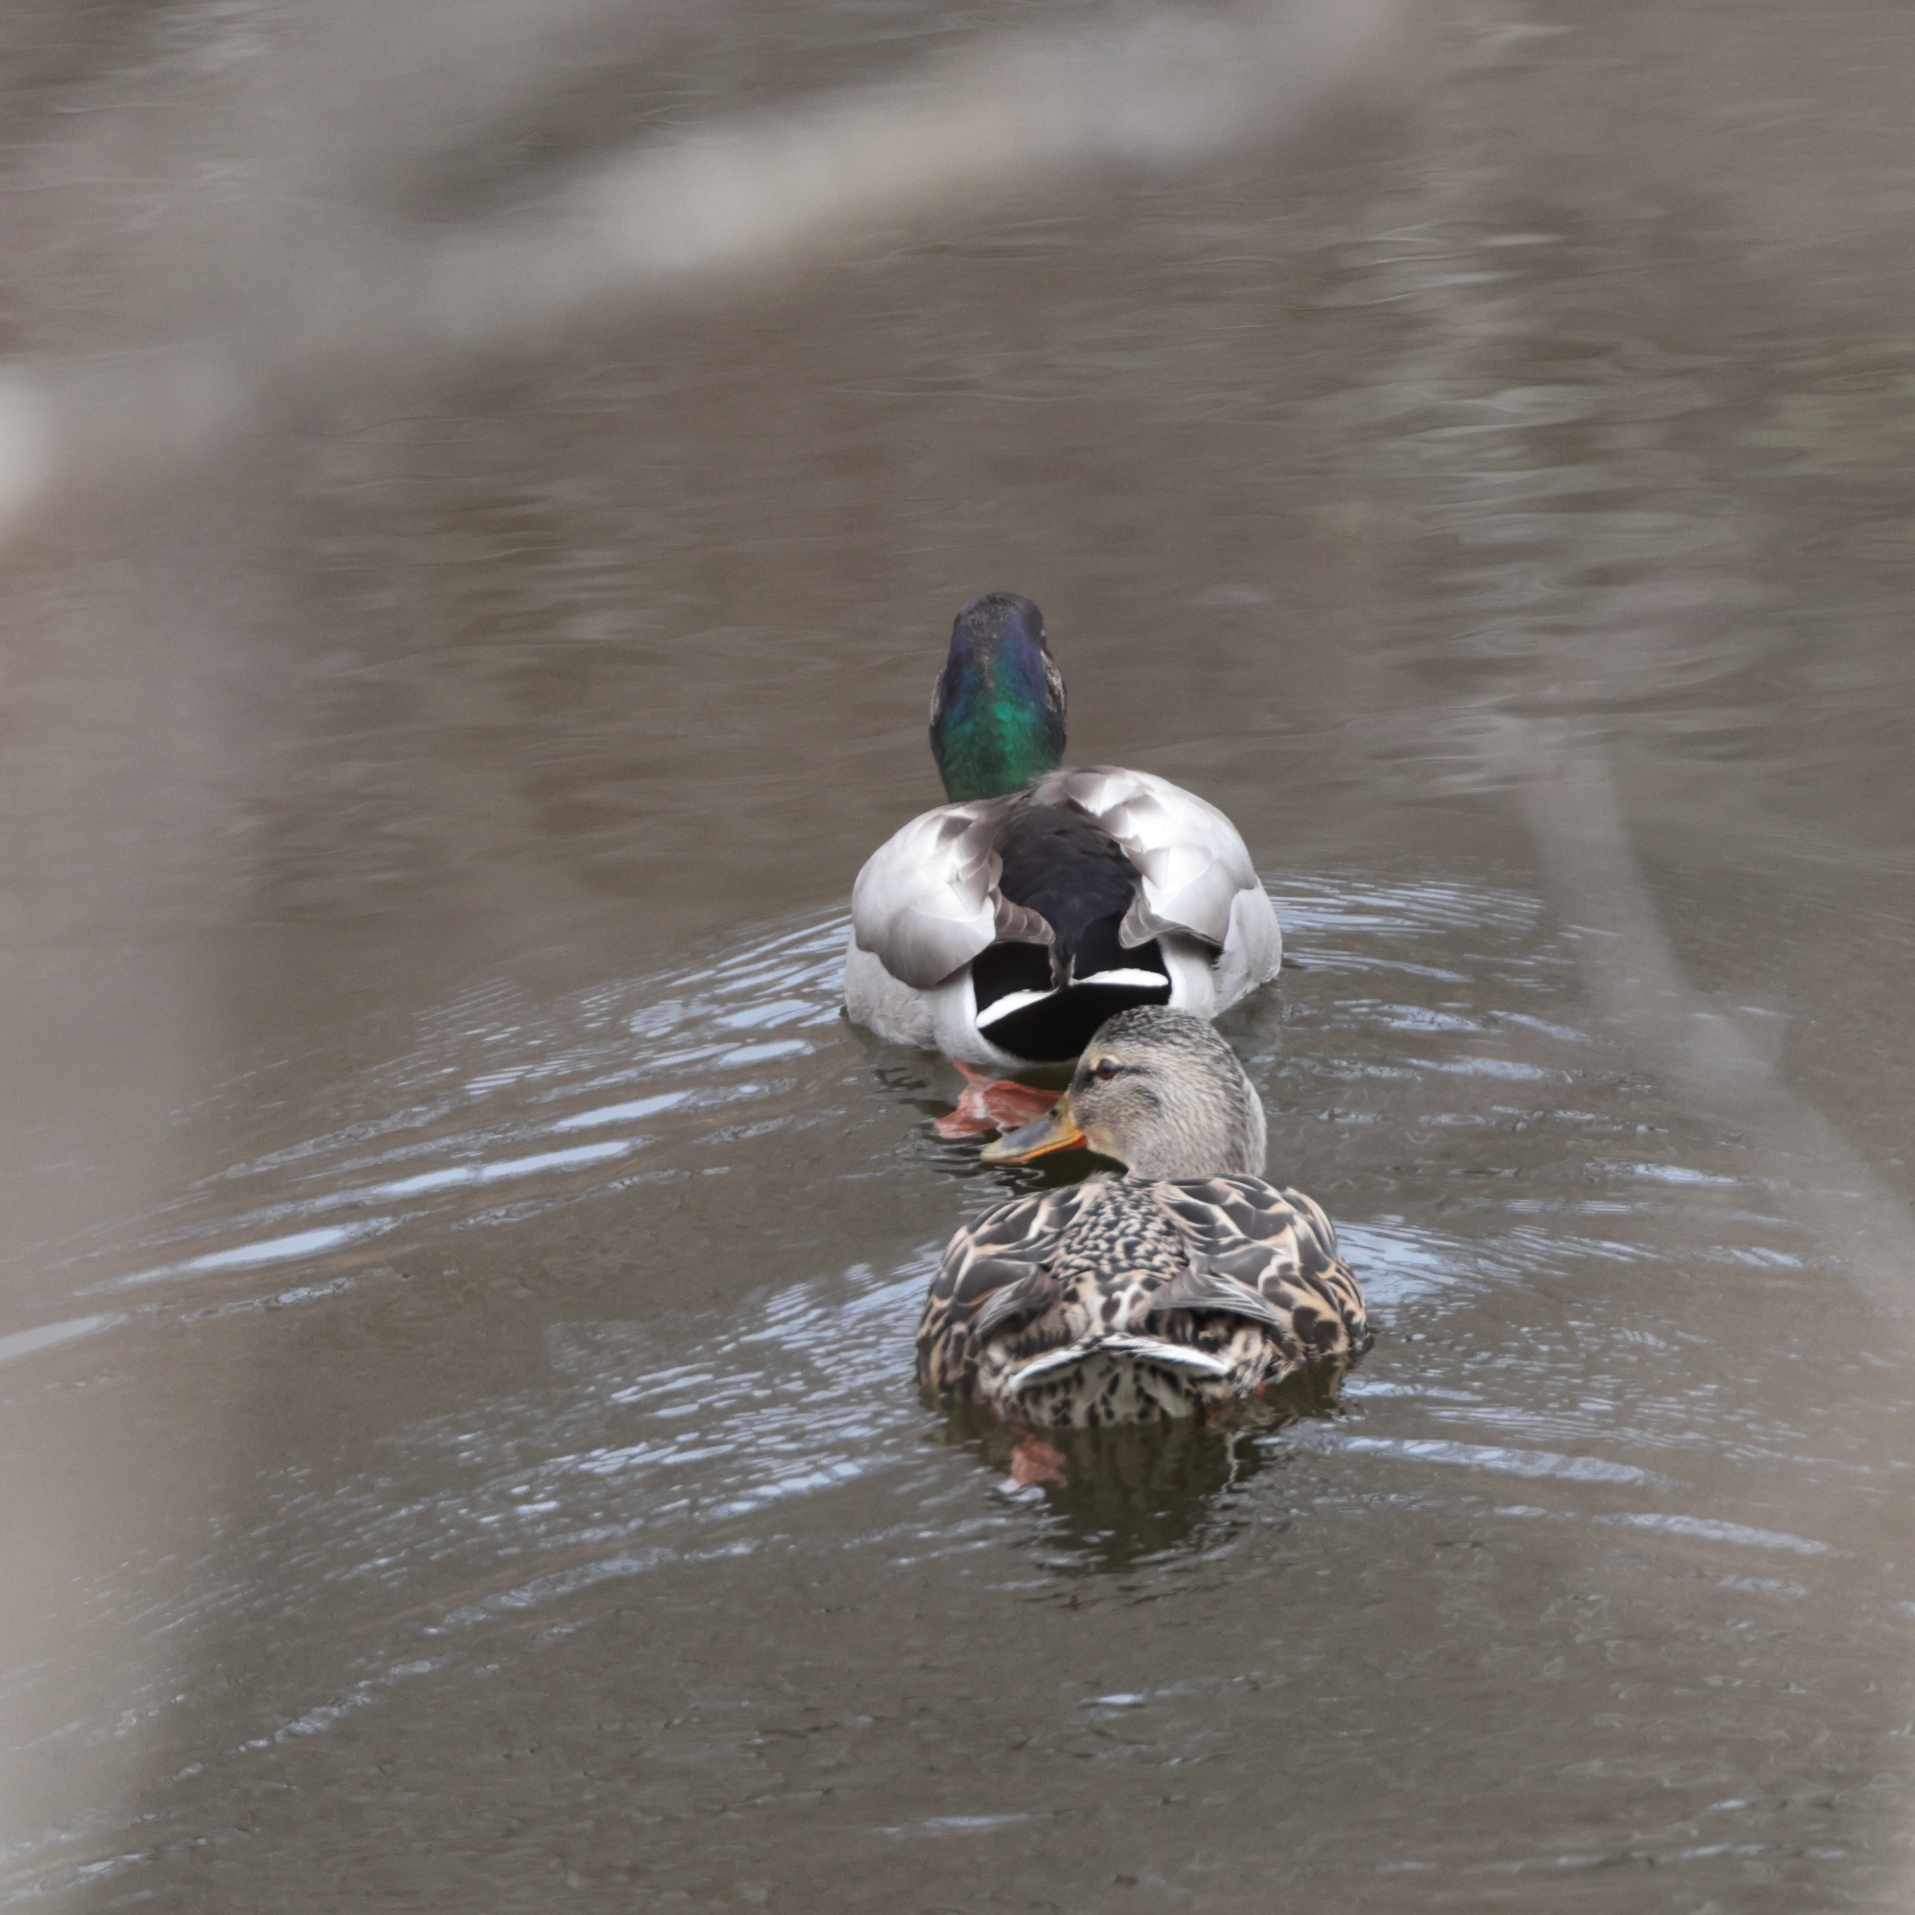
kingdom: Animalia
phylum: Chordata
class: Aves
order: Anseriformes
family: Anatidae
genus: Anas
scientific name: Anas platyrhynchos
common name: Mallard
